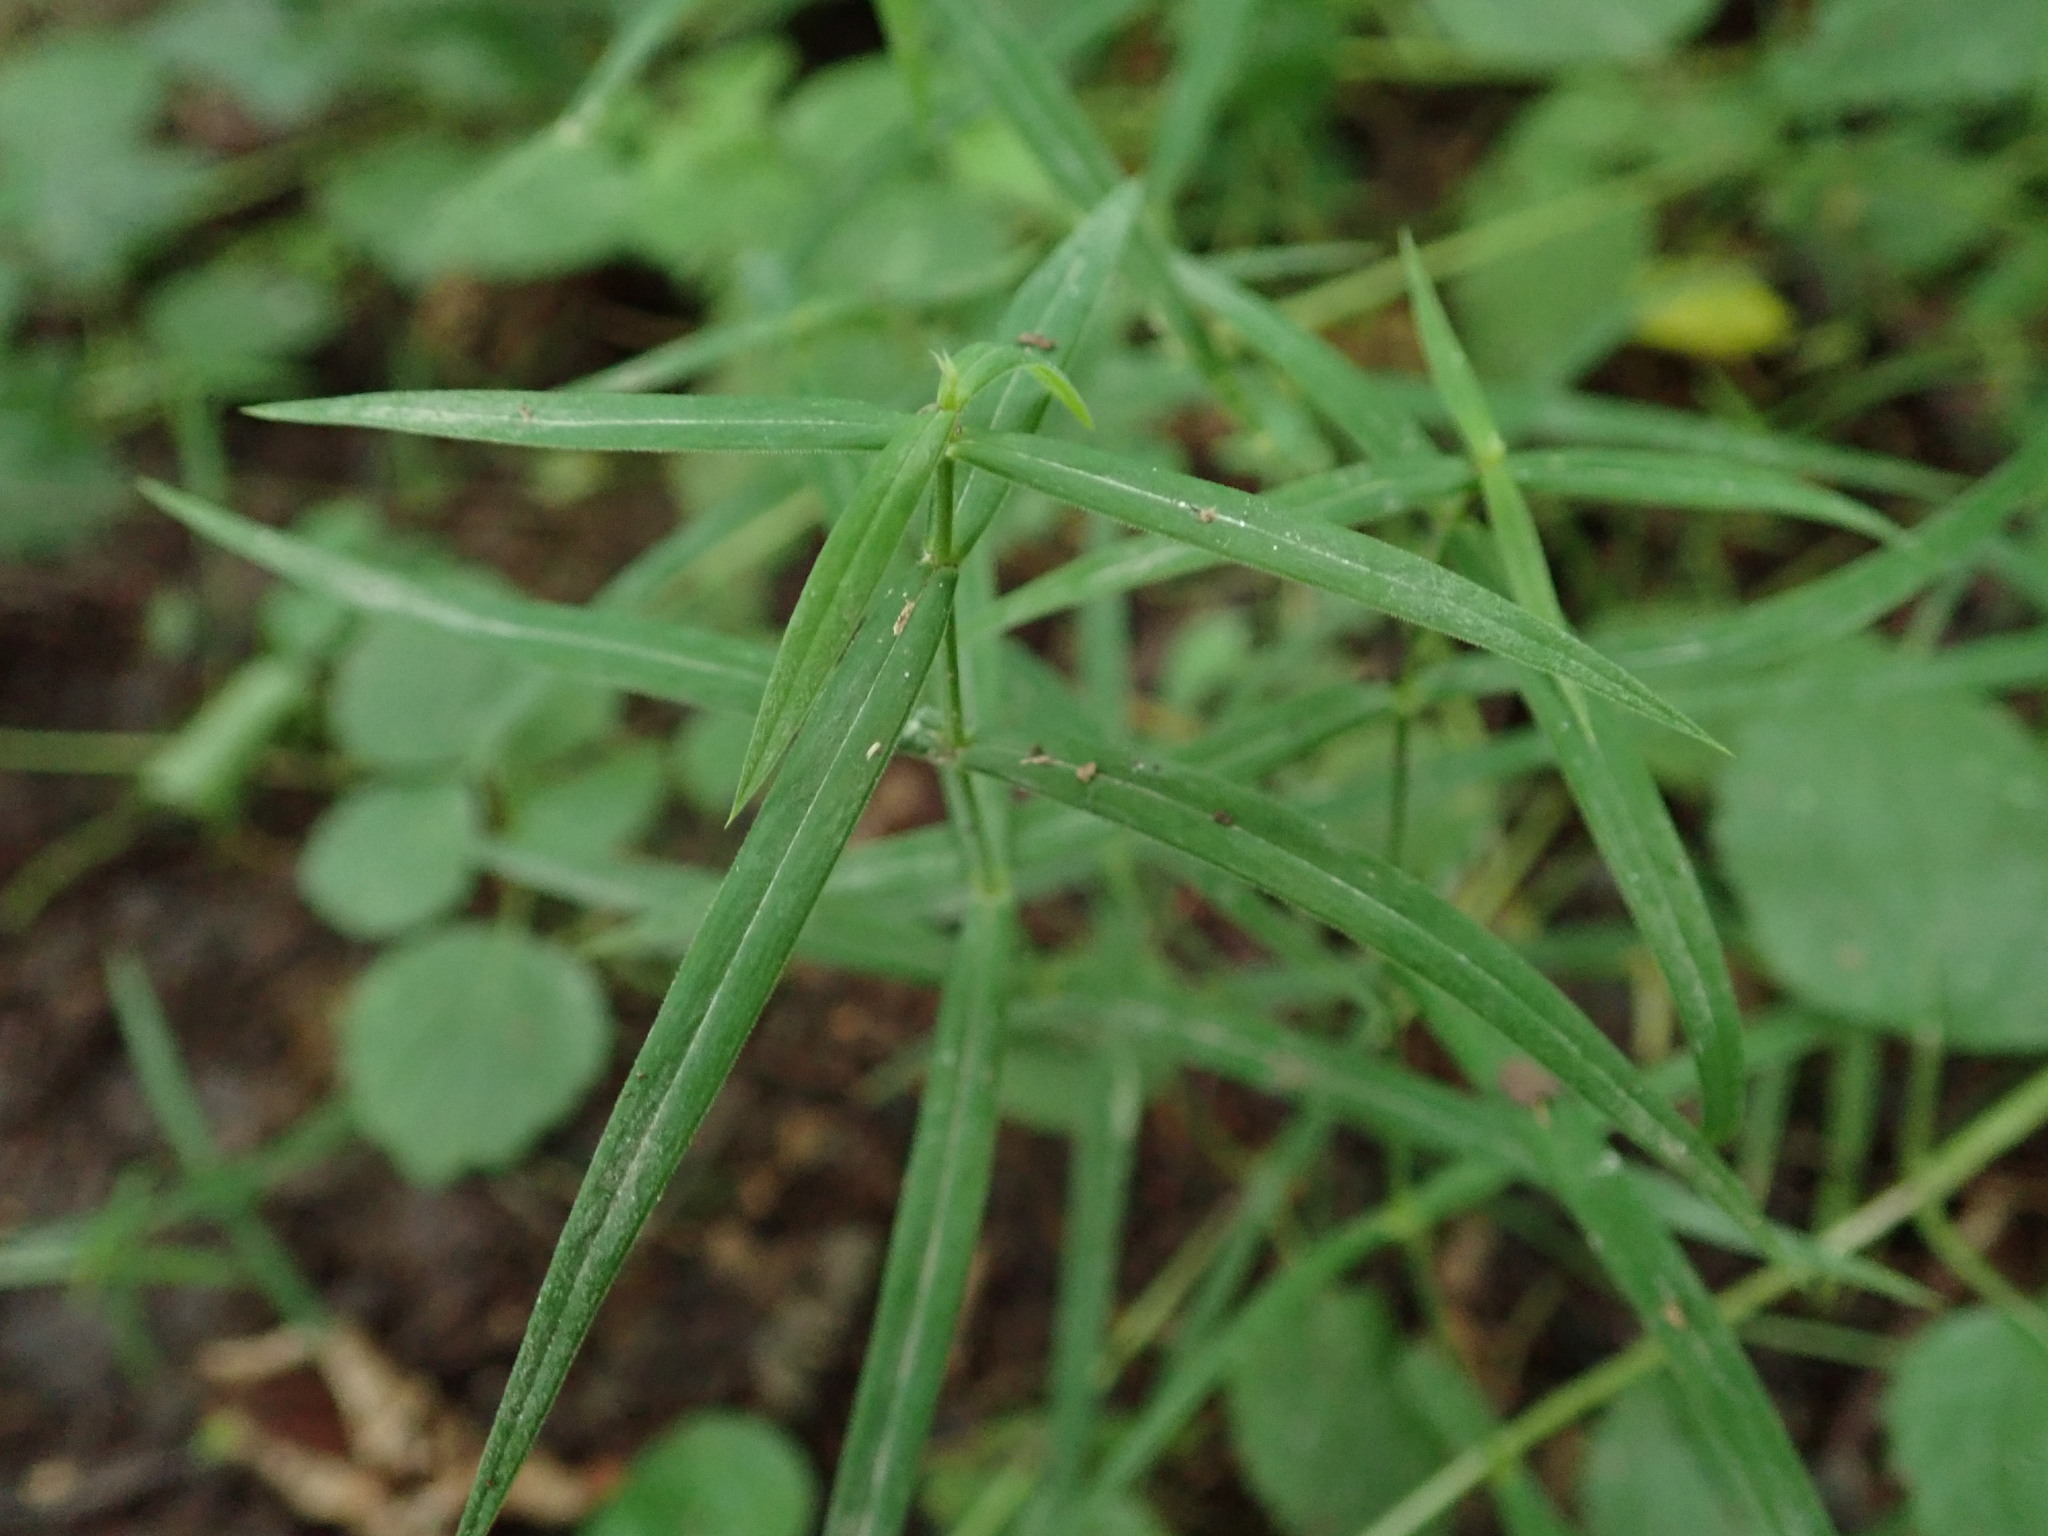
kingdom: Plantae
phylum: Tracheophyta
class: Magnoliopsida
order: Caryophyllales
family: Caryophyllaceae
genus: Rabelera
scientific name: Rabelera holostea
